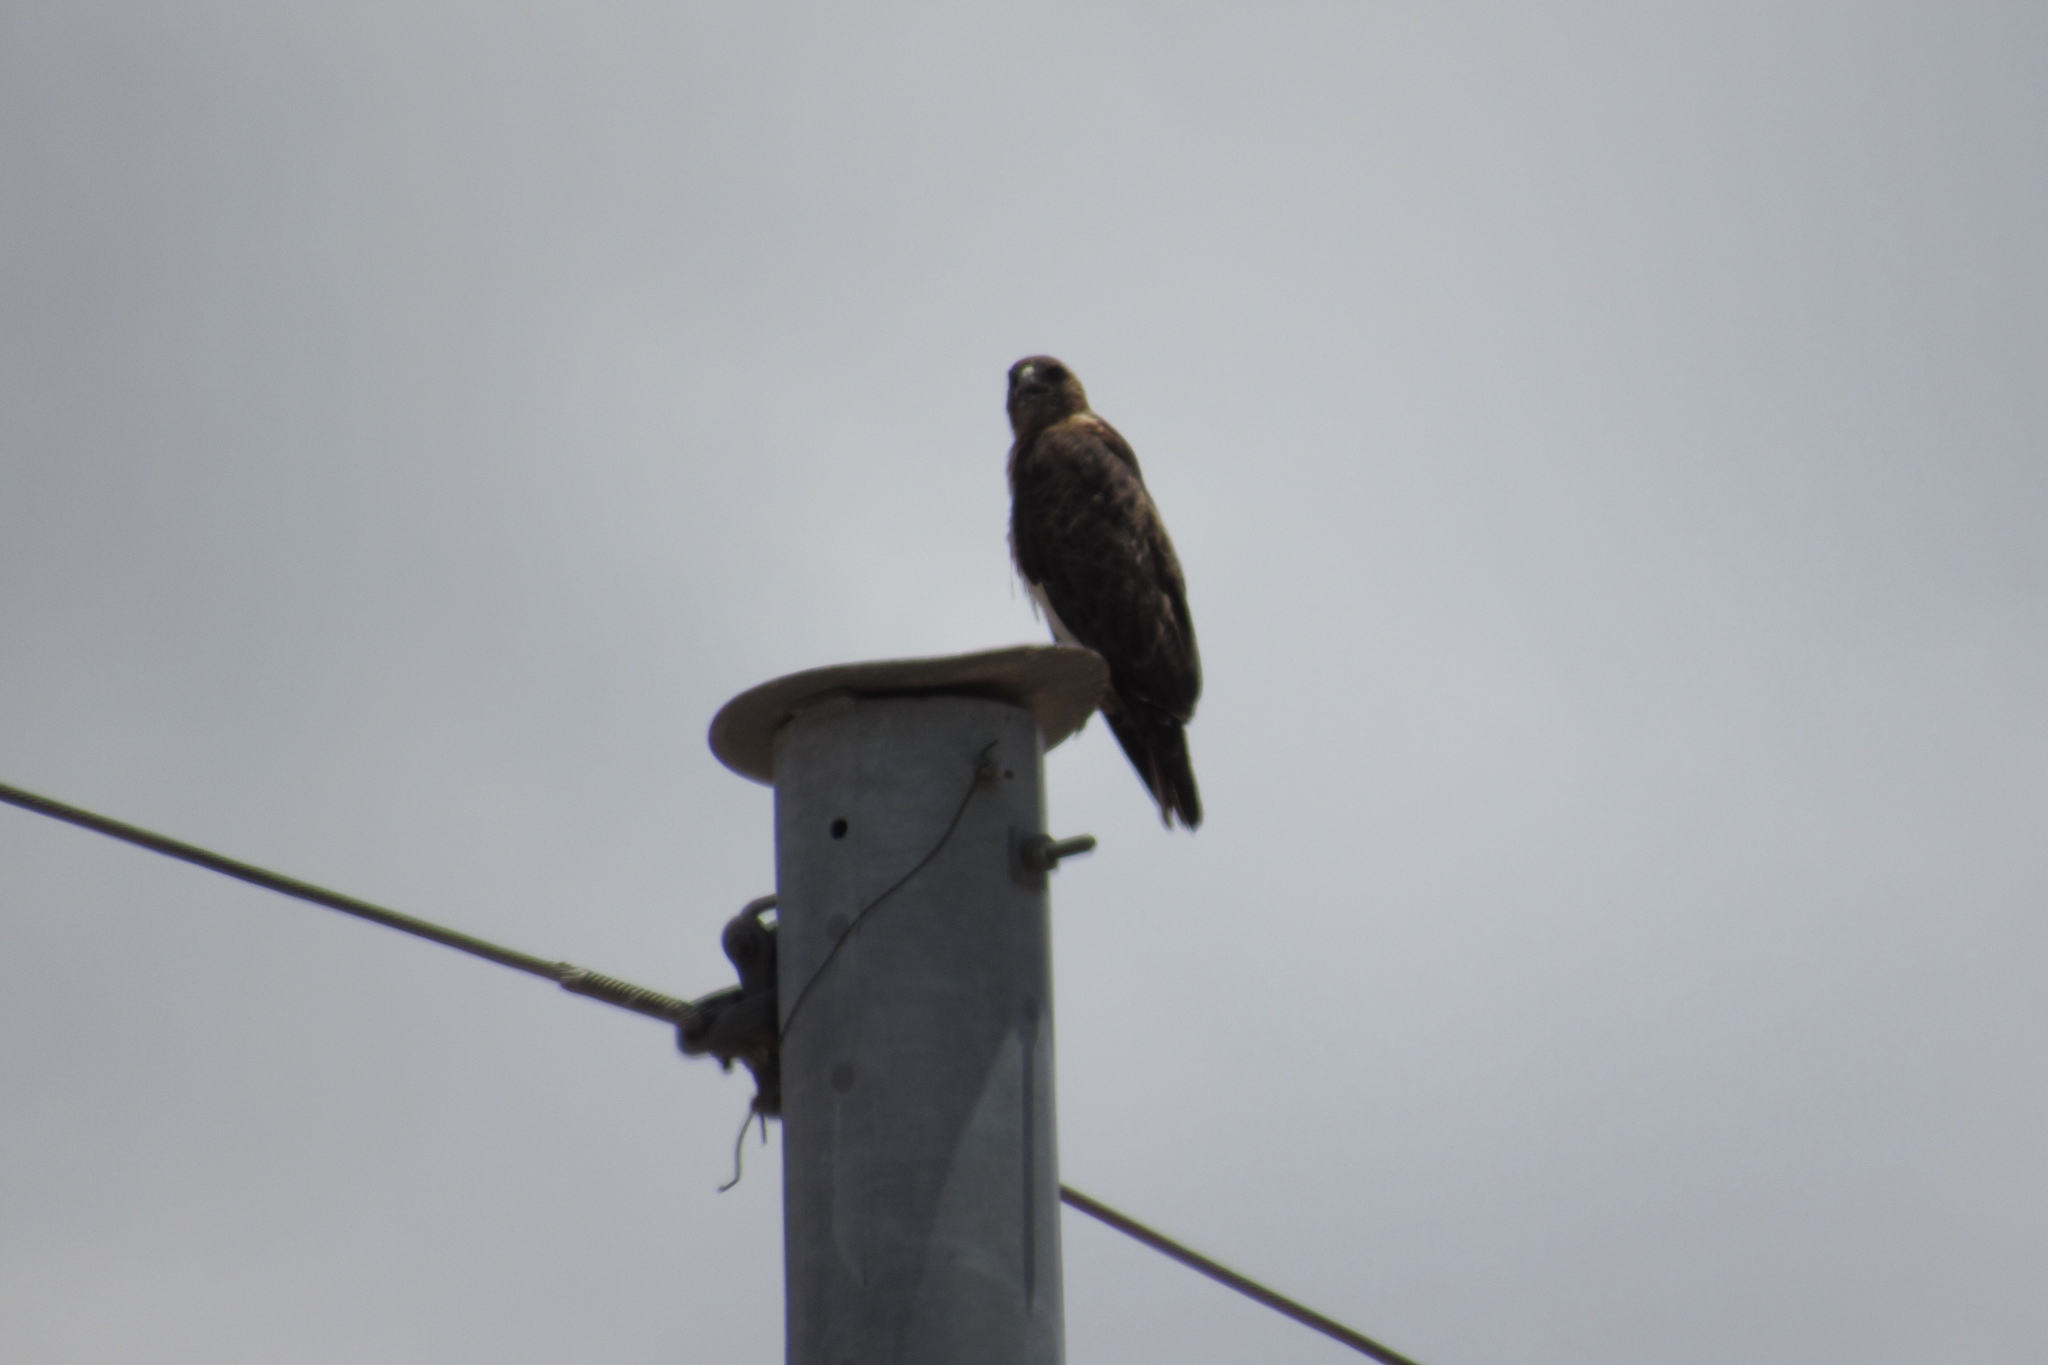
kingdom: Animalia
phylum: Chordata
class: Aves
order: Accipitriformes
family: Accipitridae
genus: Buteo
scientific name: Buteo jamaicensis
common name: Red-tailed hawk
